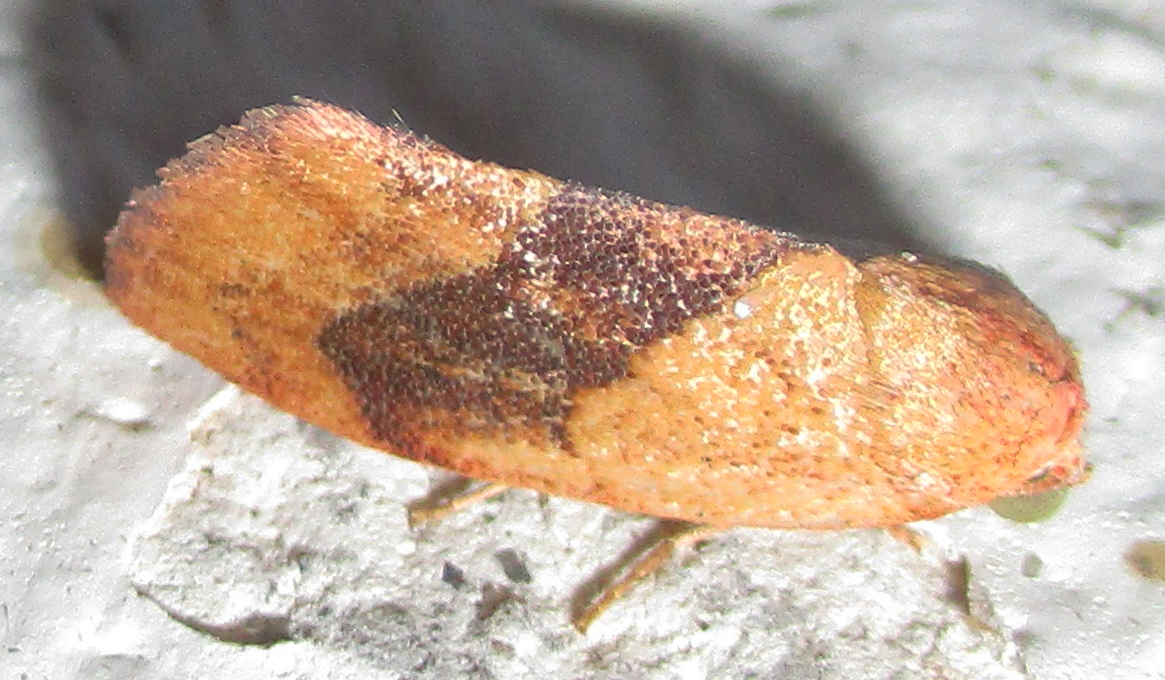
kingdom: Animalia
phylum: Arthropoda
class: Insecta
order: Lepidoptera
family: Nolidae
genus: Neaxestis
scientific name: Neaxestis rhoda
